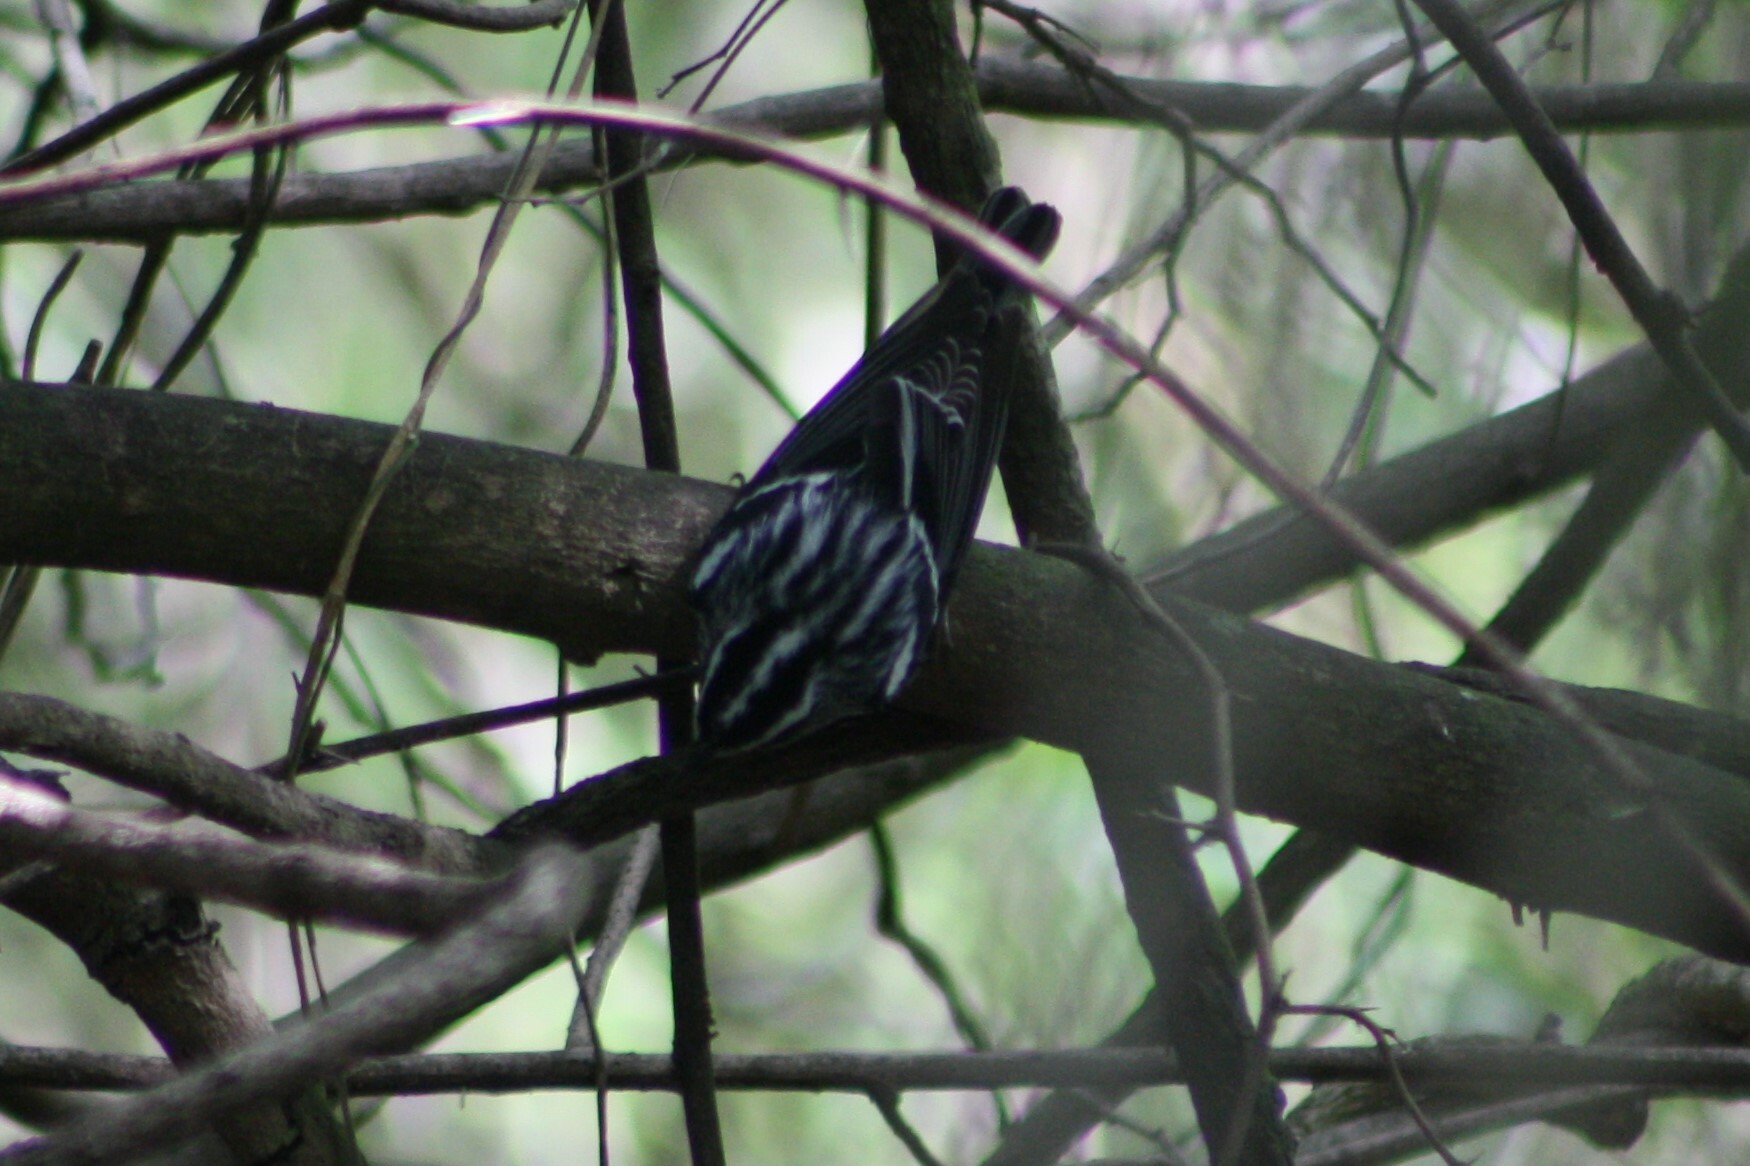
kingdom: Animalia
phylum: Chordata
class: Aves
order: Passeriformes
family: Parulidae
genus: Mniotilta
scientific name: Mniotilta varia
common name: Black-and-white warbler
